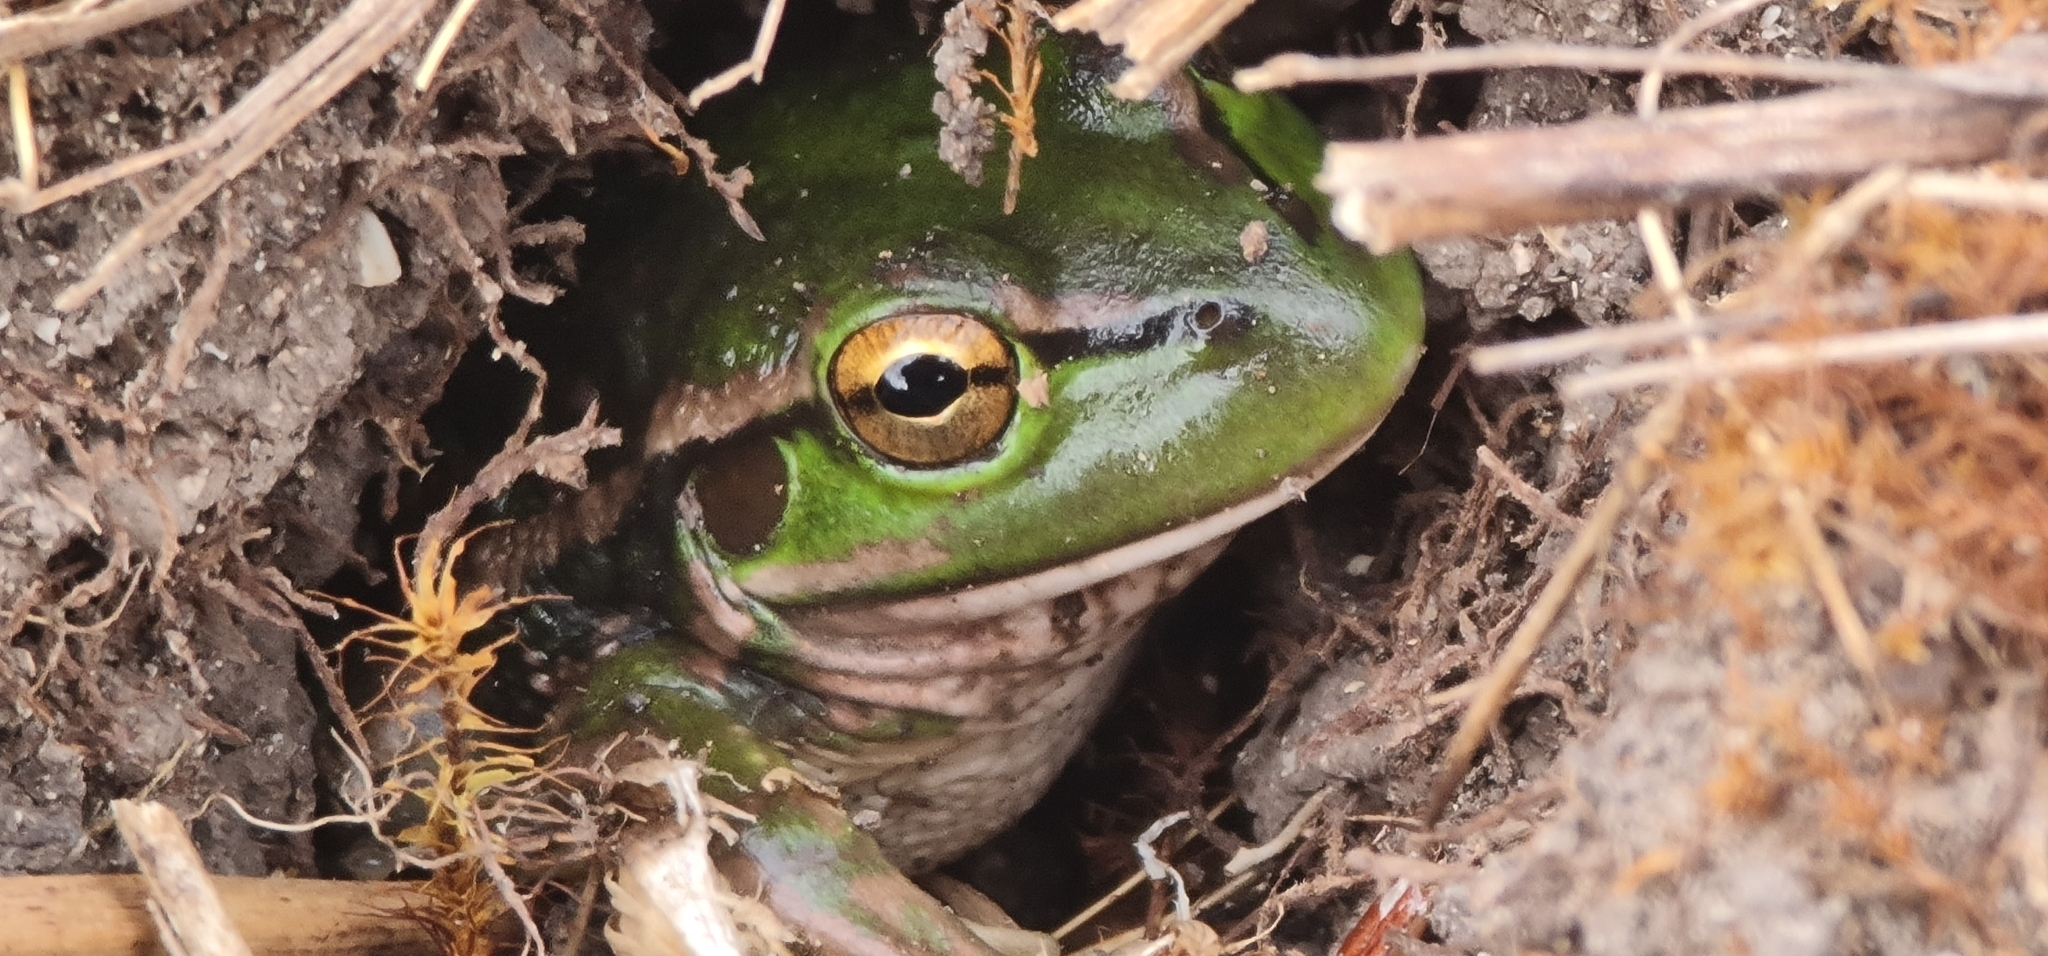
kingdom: Animalia
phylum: Chordata
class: Amphibia
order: Anura
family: Pelodryadidae
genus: Ranoidea
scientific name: Ranoidea raniformis
